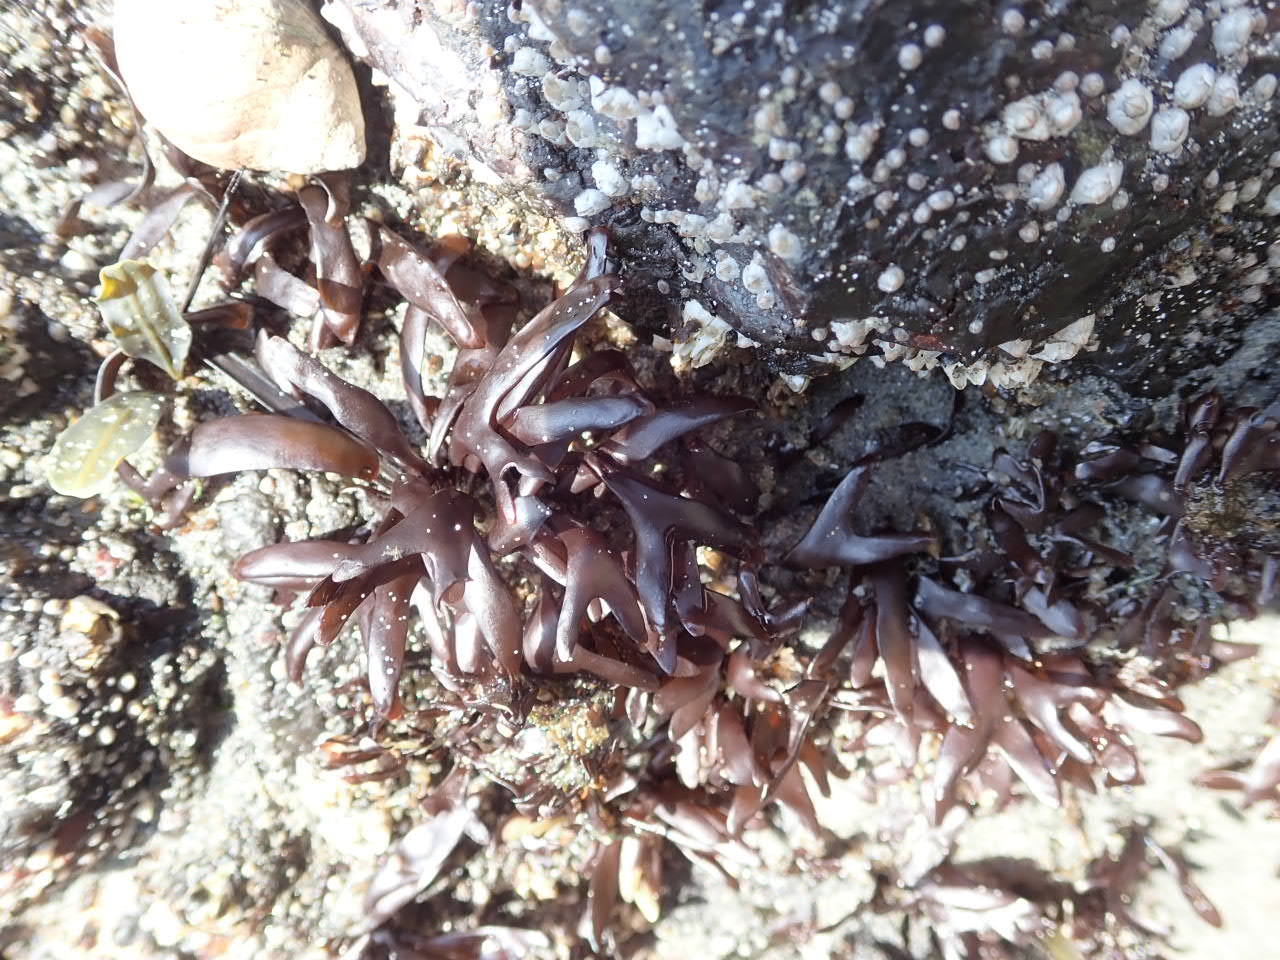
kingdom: Plantae
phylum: Rhodophyta
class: Florideophyceae
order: Gigartinales
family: Gigartinaceae
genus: Chondrus
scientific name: Chondrus crispus
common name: Carrageen
